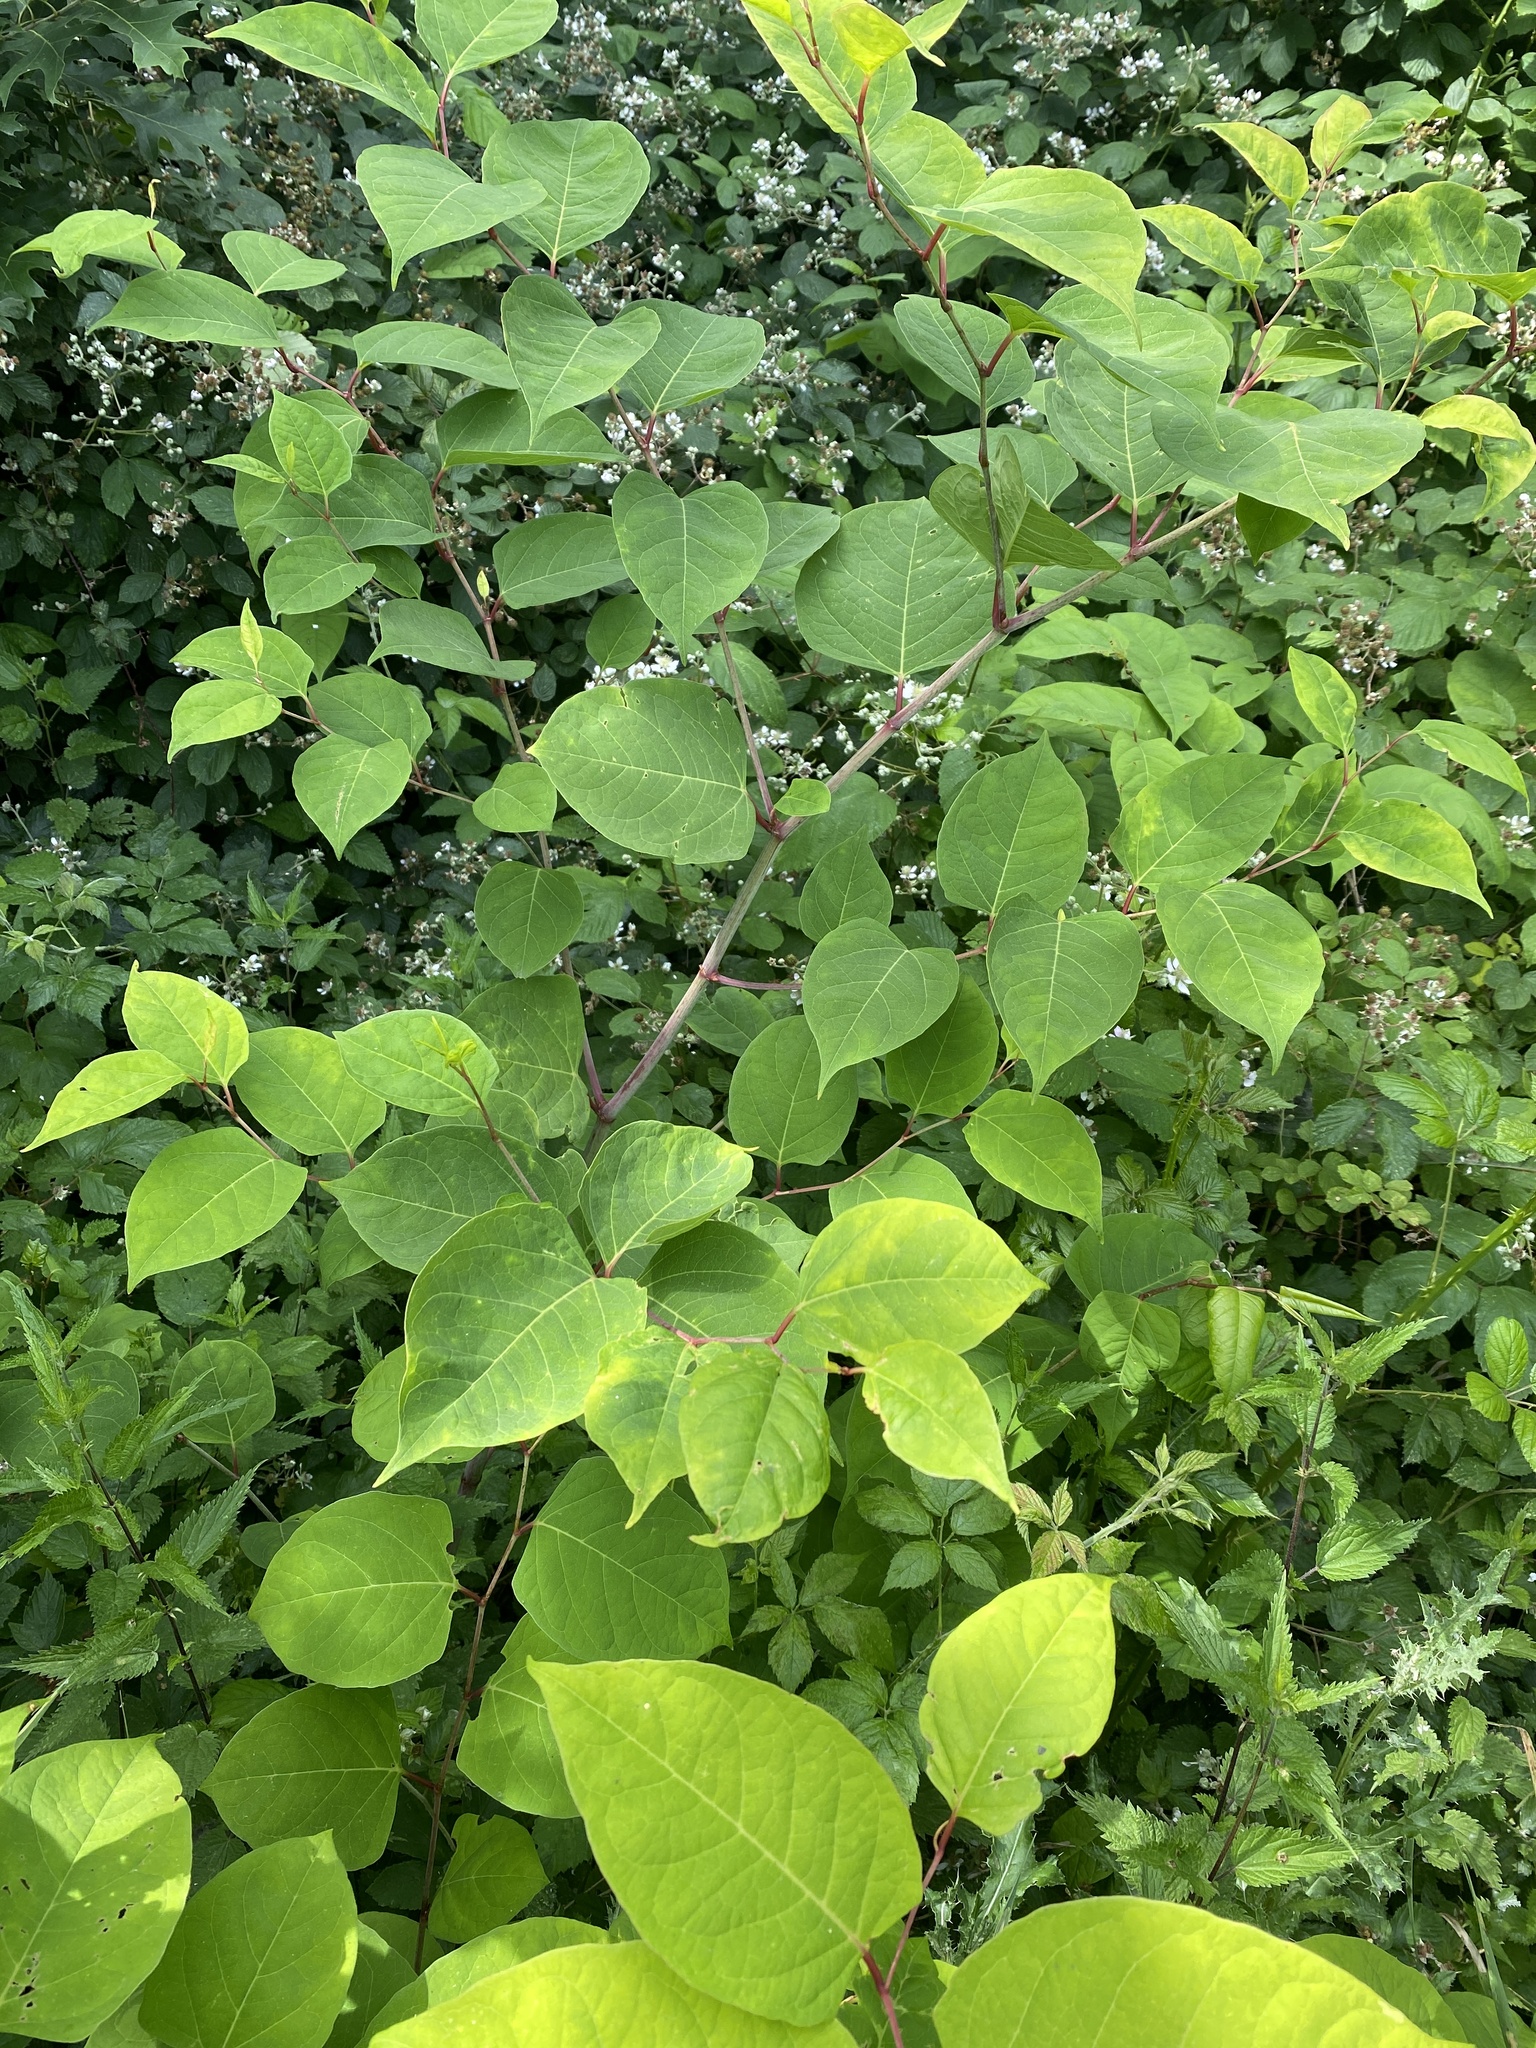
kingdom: Plantae
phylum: Tracheophyta
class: Magnoliopsida
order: Caryophyllales
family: Polygonaceae
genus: Reynoutria
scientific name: Reynoutria japonica
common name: Japanese knotweed
